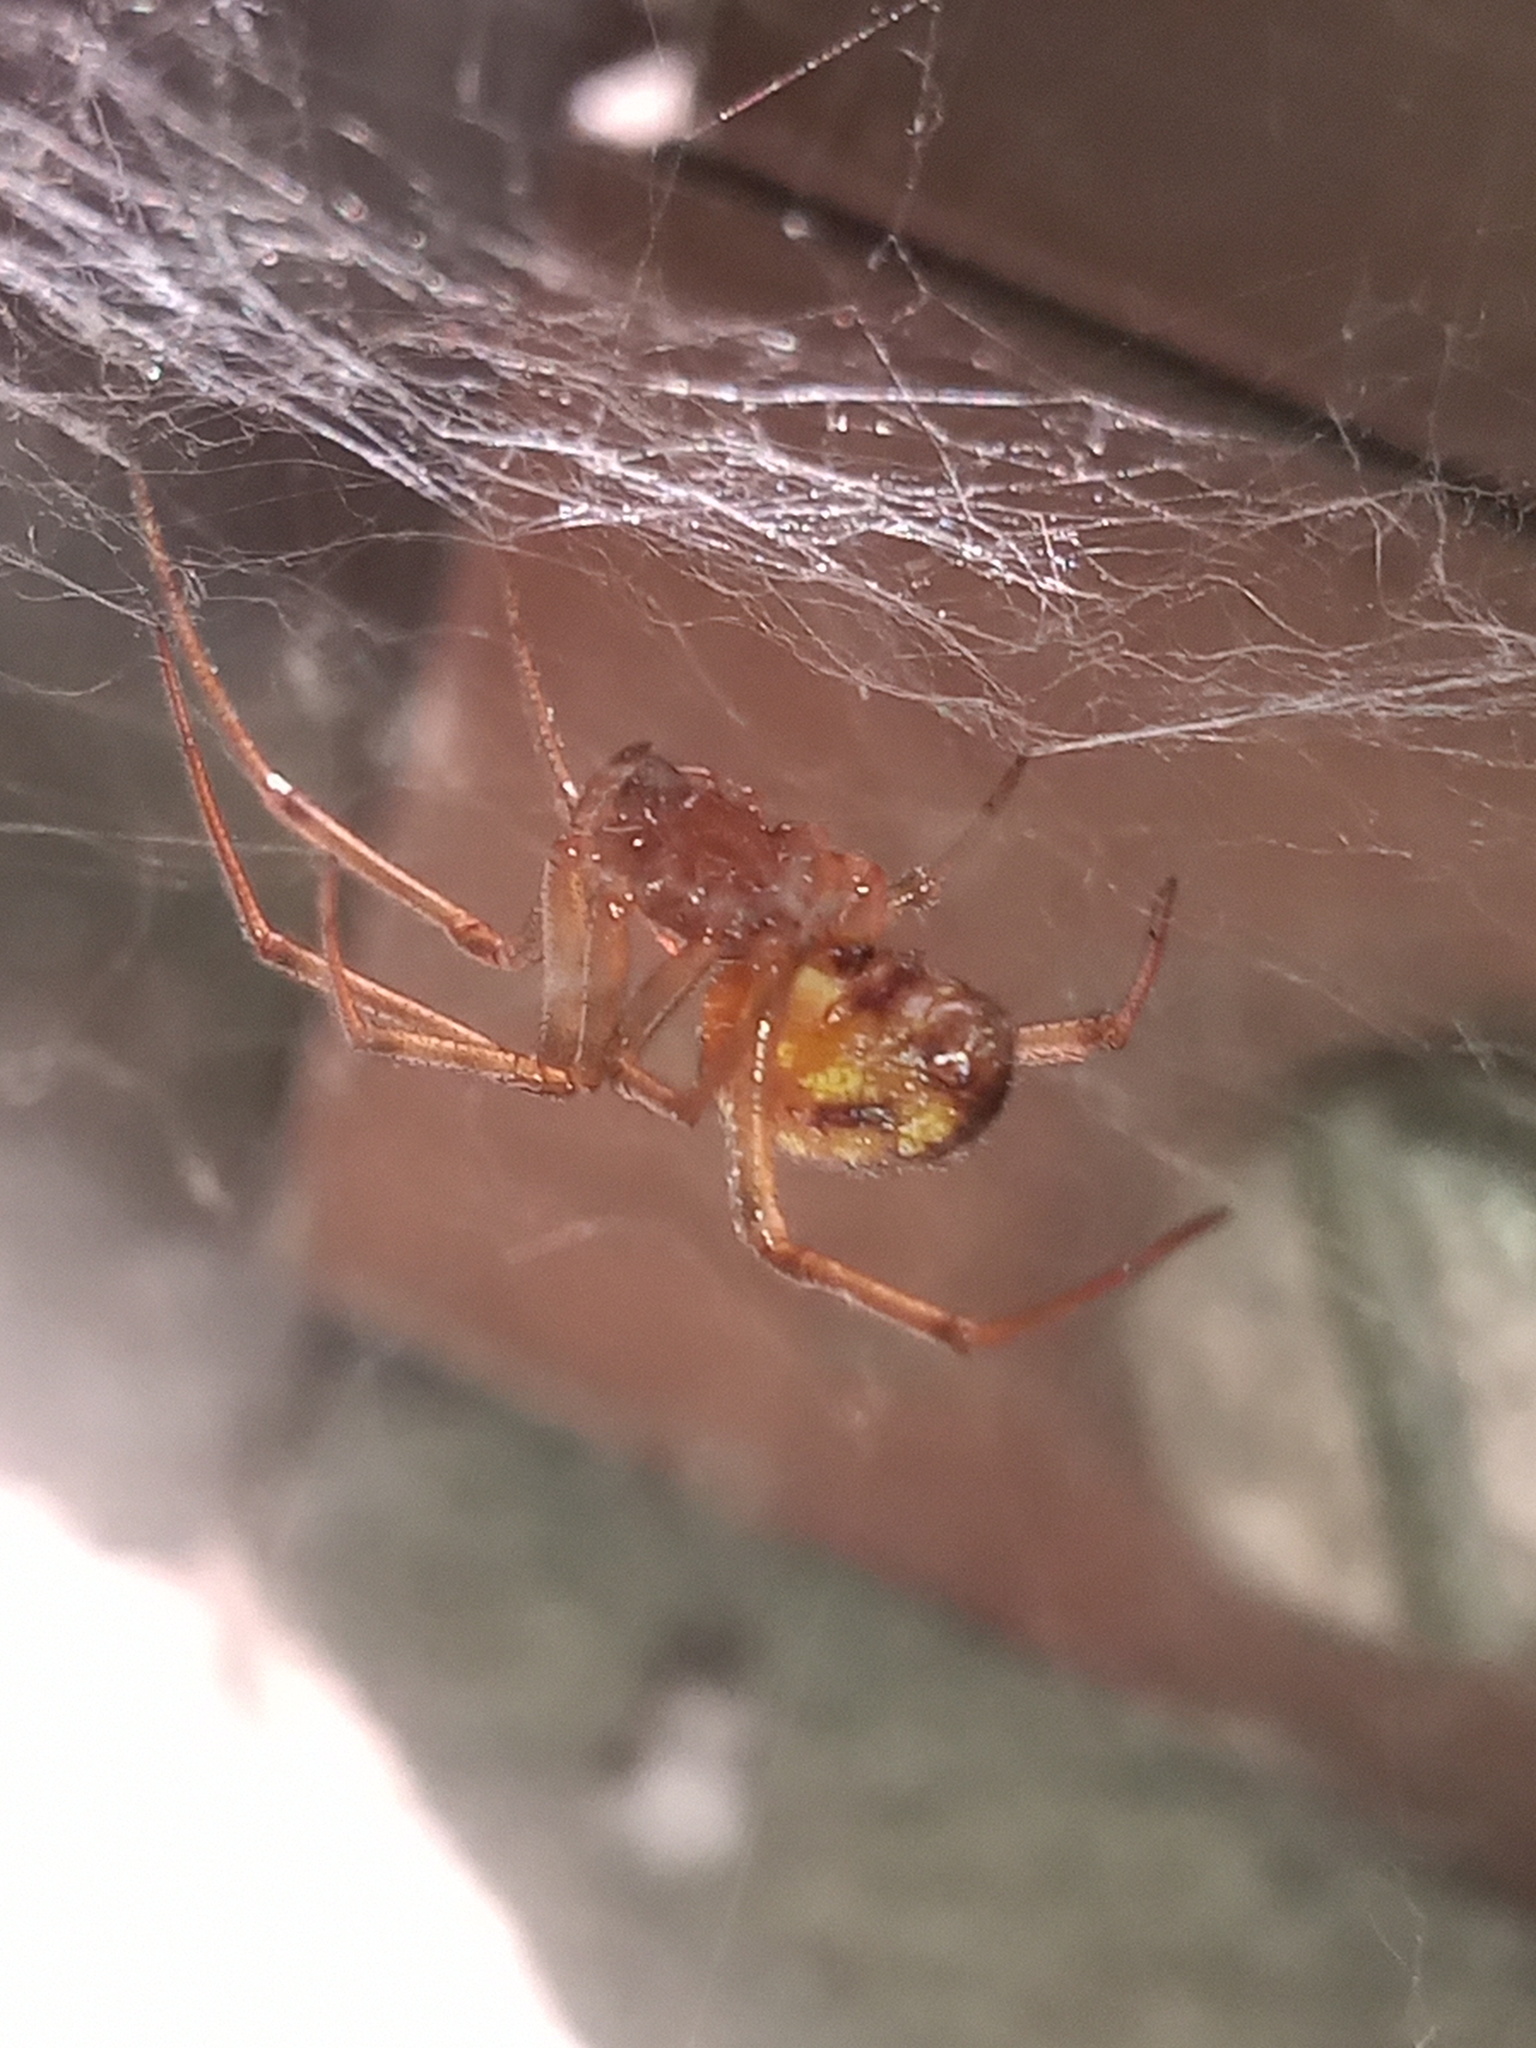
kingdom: Animalia
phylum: Arthropoda
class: Arachnida
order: Araneae
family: Theridiidae
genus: Parasteatoda
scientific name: Parasteatoda tepidariorum
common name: Common house spider
